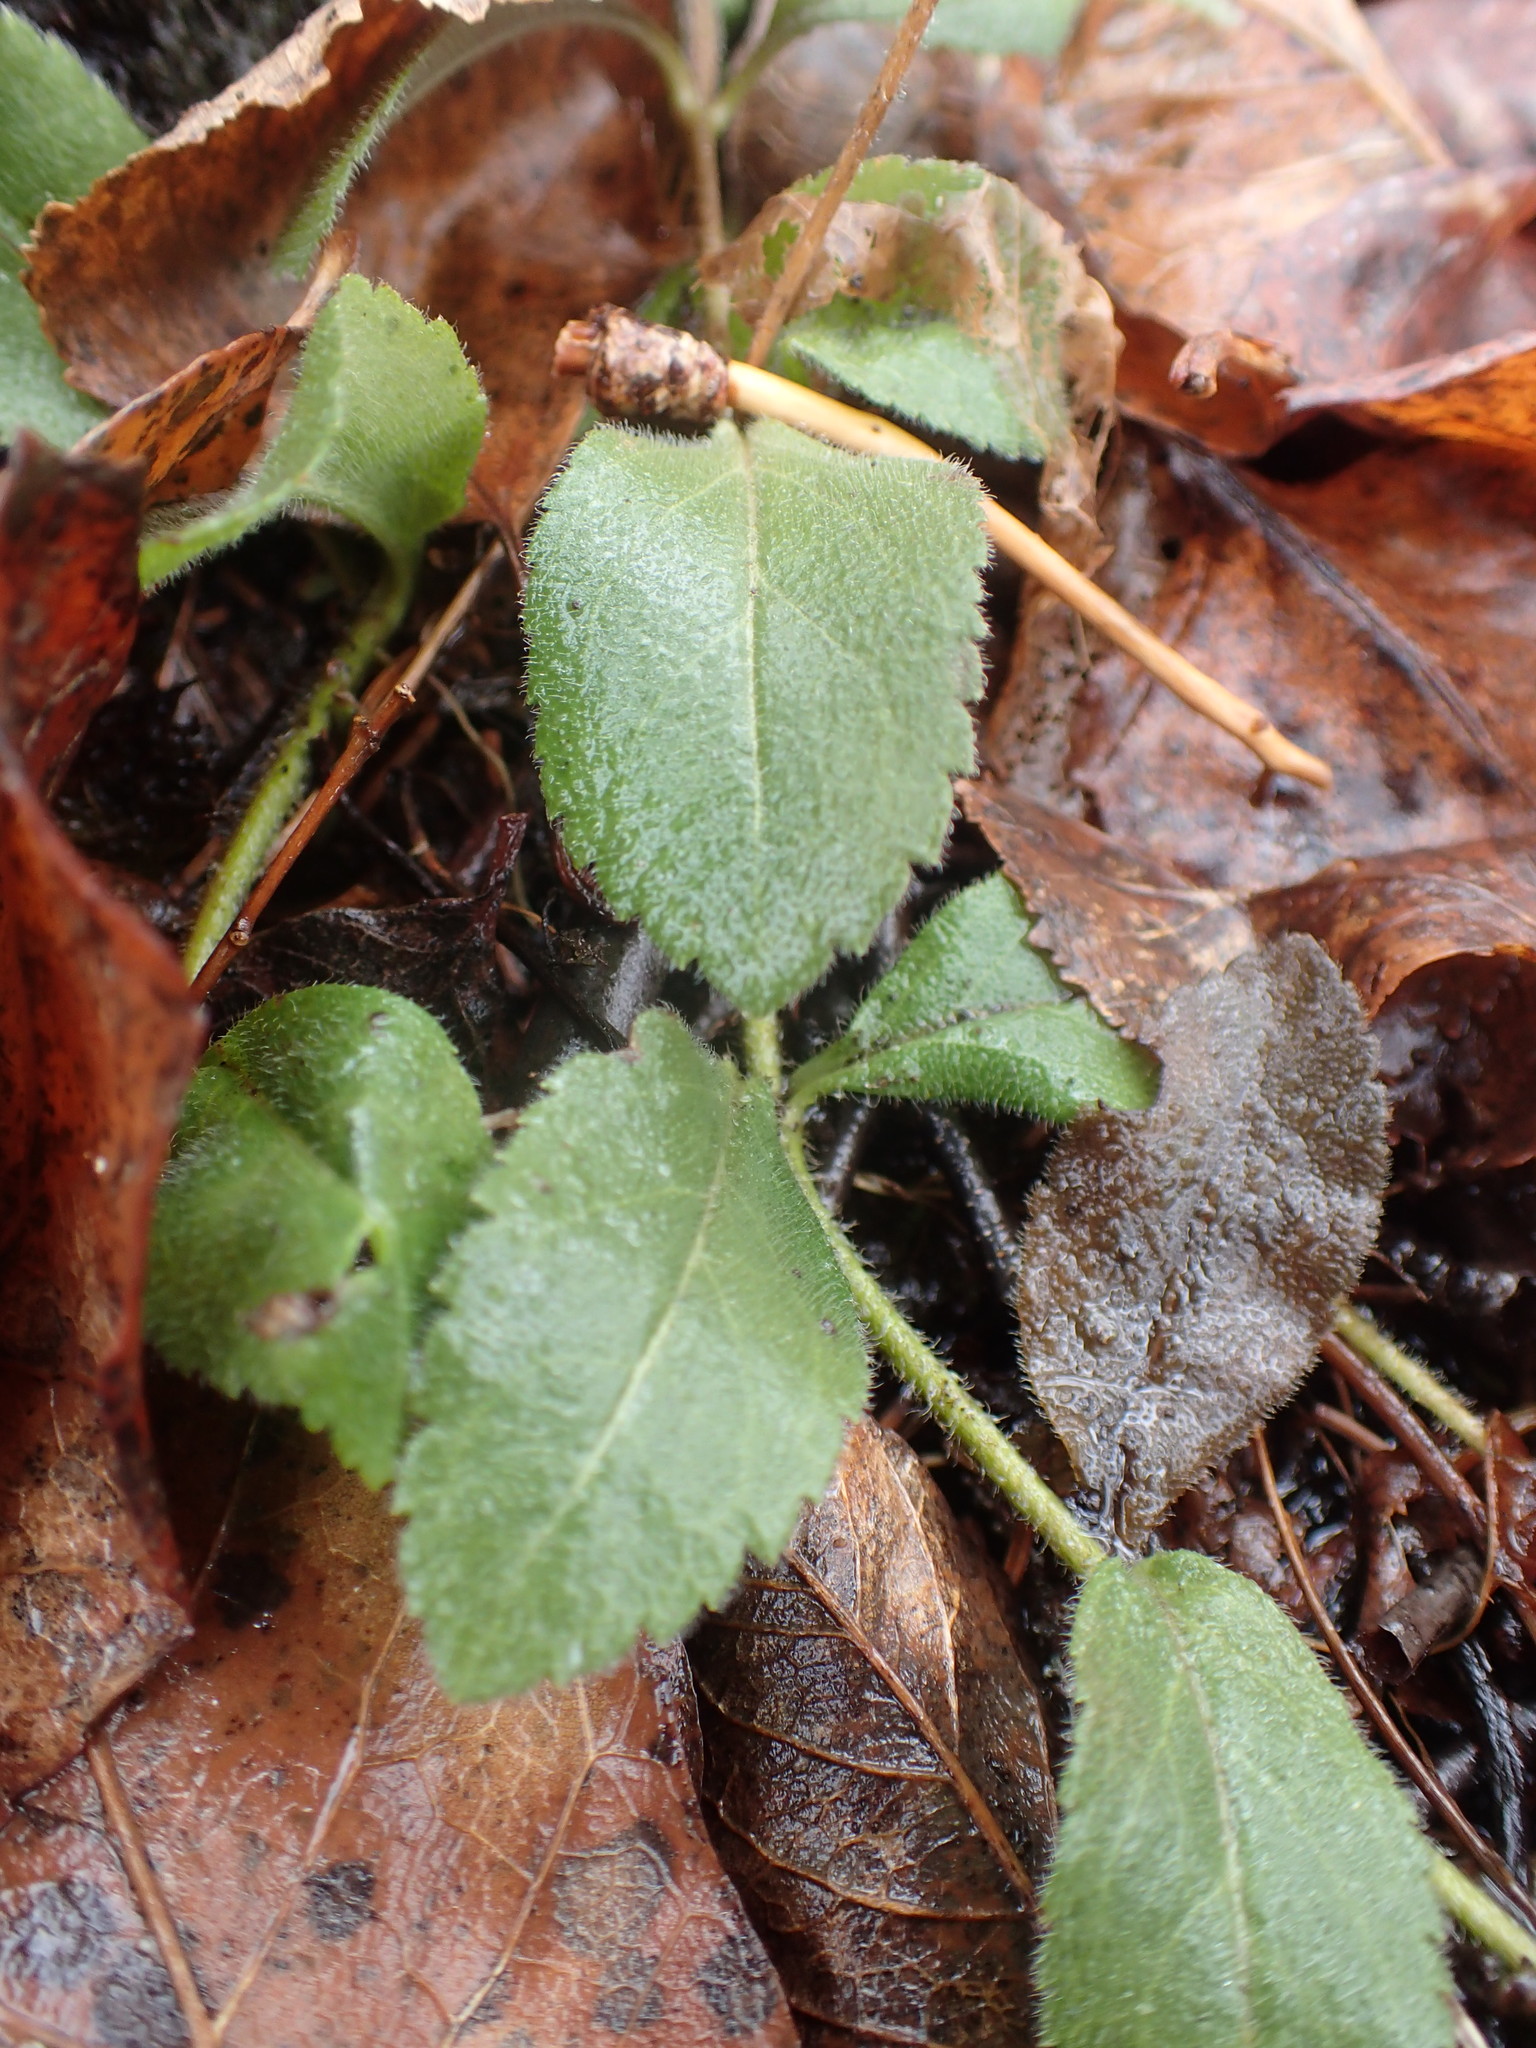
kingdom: Plantae
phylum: Tracheophyta
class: Magnoliopsida
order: Lamiales
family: Plantaginaceae
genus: Veronica
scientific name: Veronica officinalis
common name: Common speedwell
